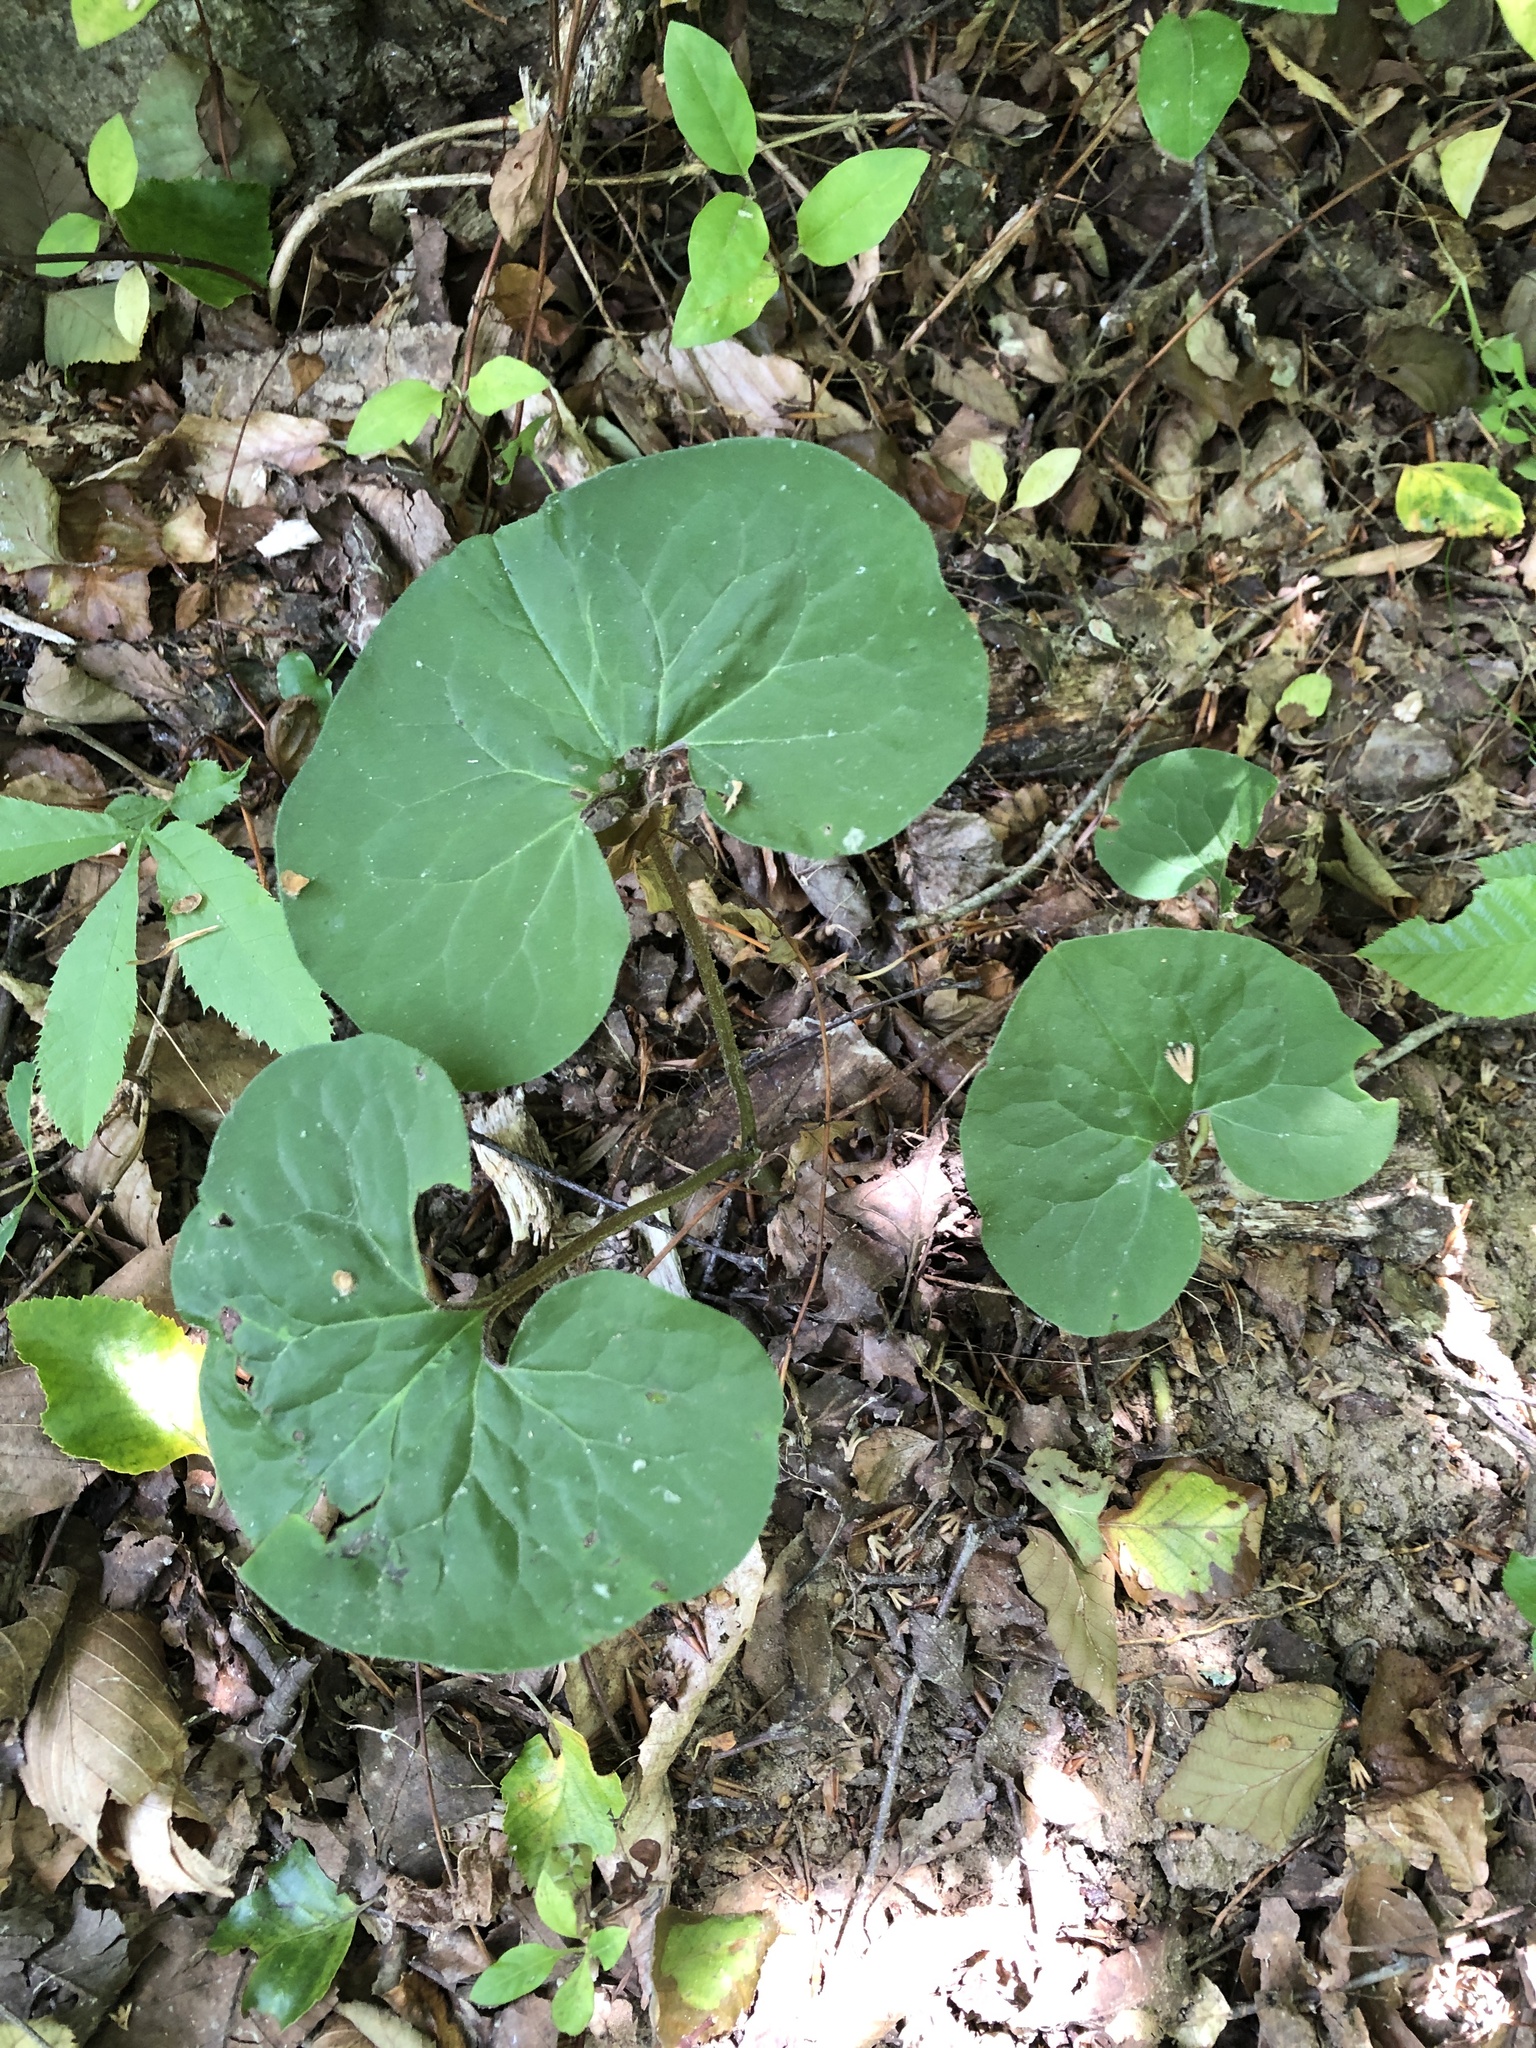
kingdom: Plantae
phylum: Tracheophyta
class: Magnoliopsida
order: Piperales
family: Aristolochiaceae
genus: Asarum
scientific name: Asarum canadense
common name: Wild ginger
